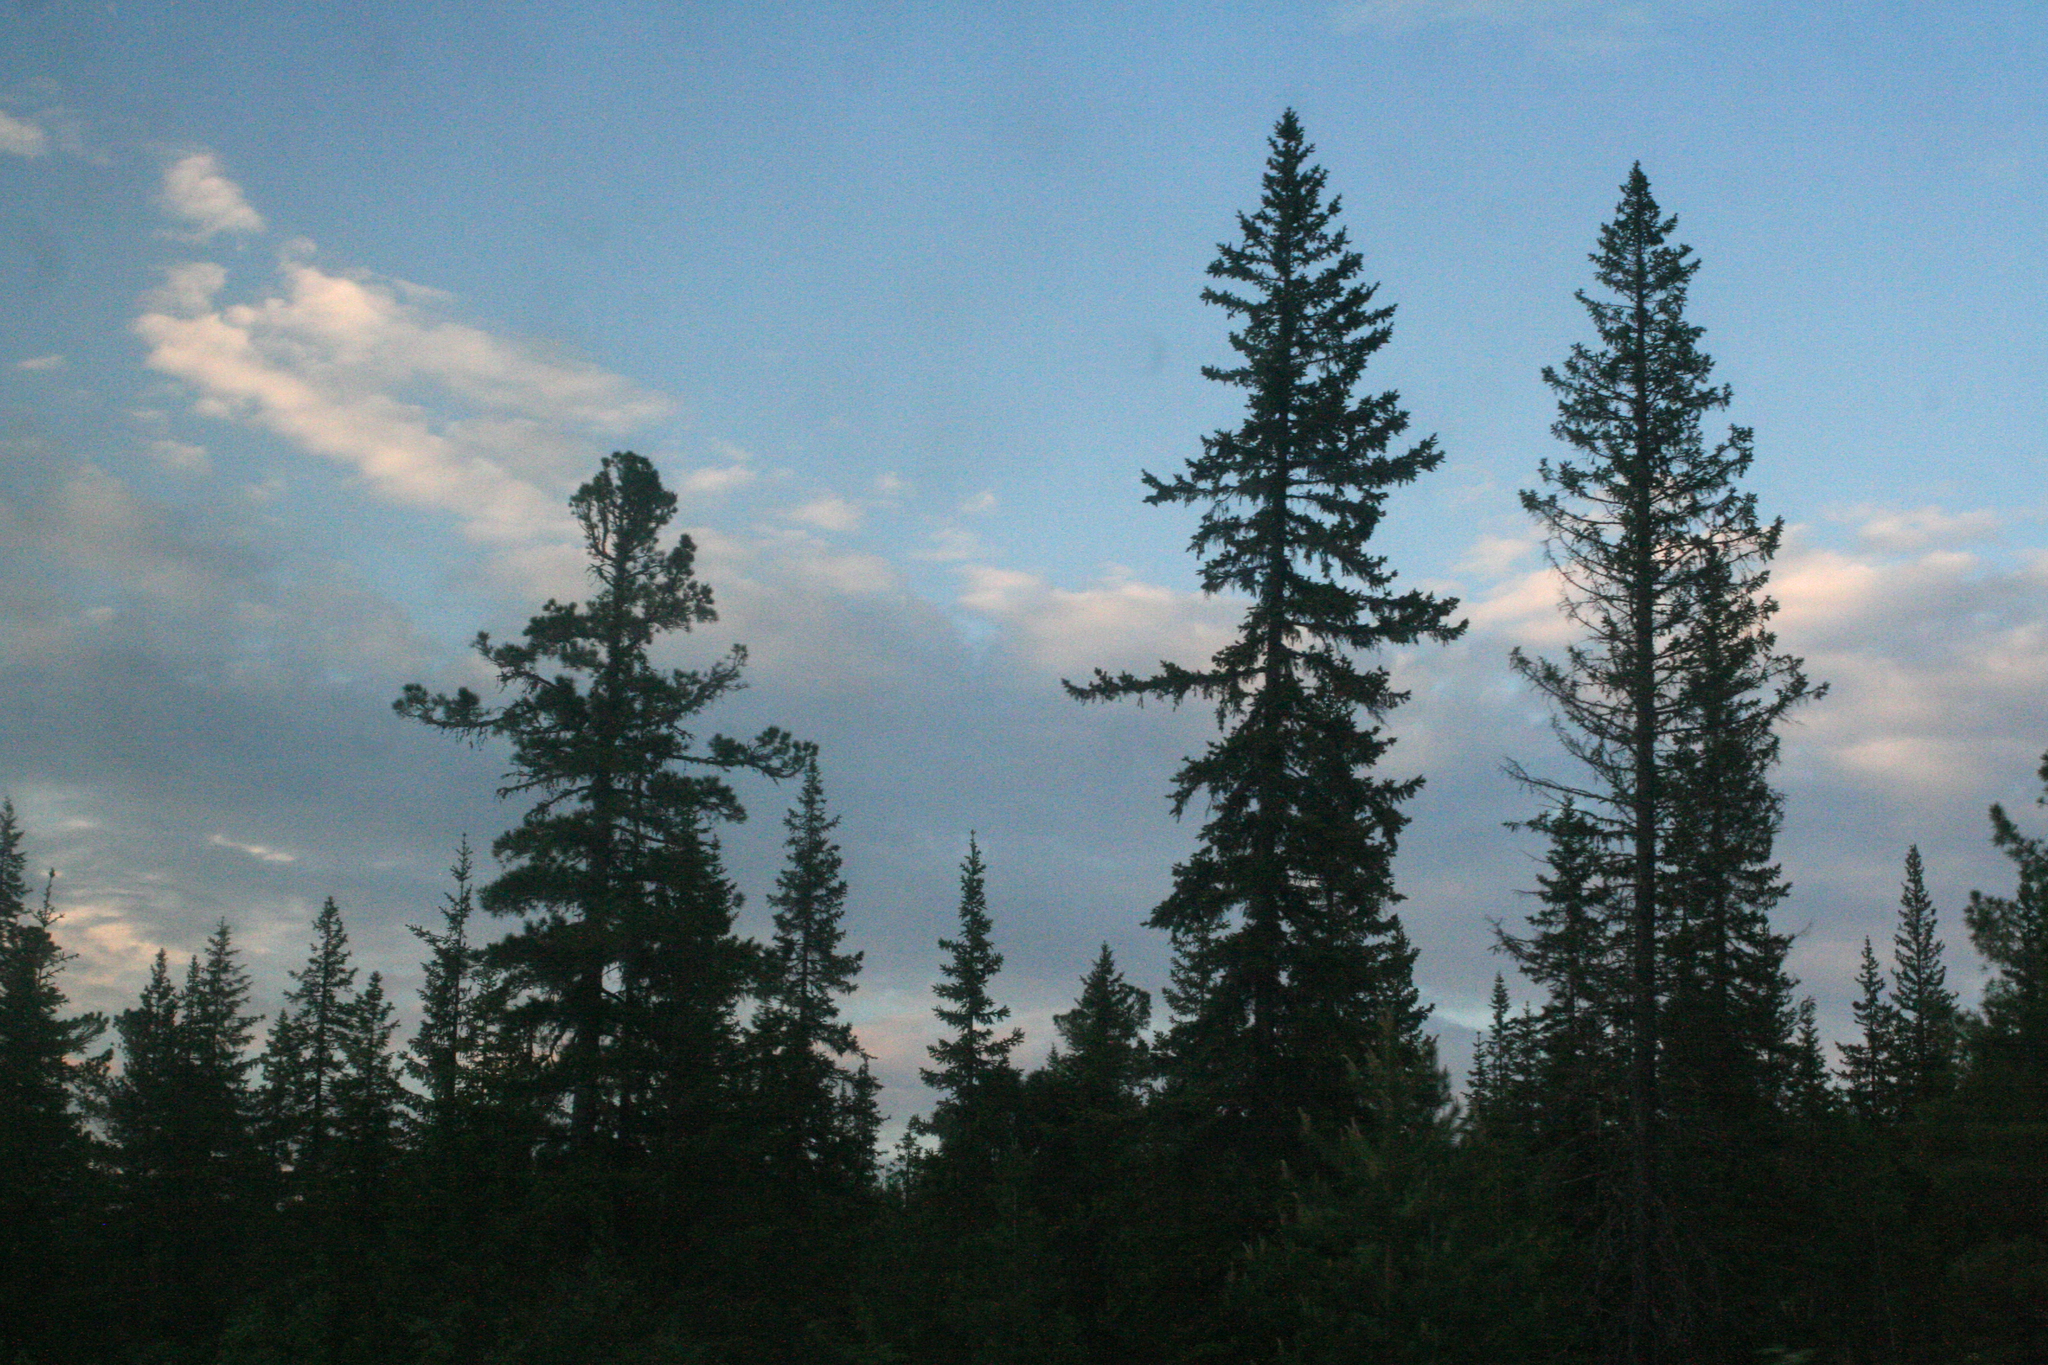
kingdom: Plantae
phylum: Tracheophyta
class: Pinopsida
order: Pinales
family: Pinaceae
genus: Pinus
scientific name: Pinus sibirica
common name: Siberian pine
